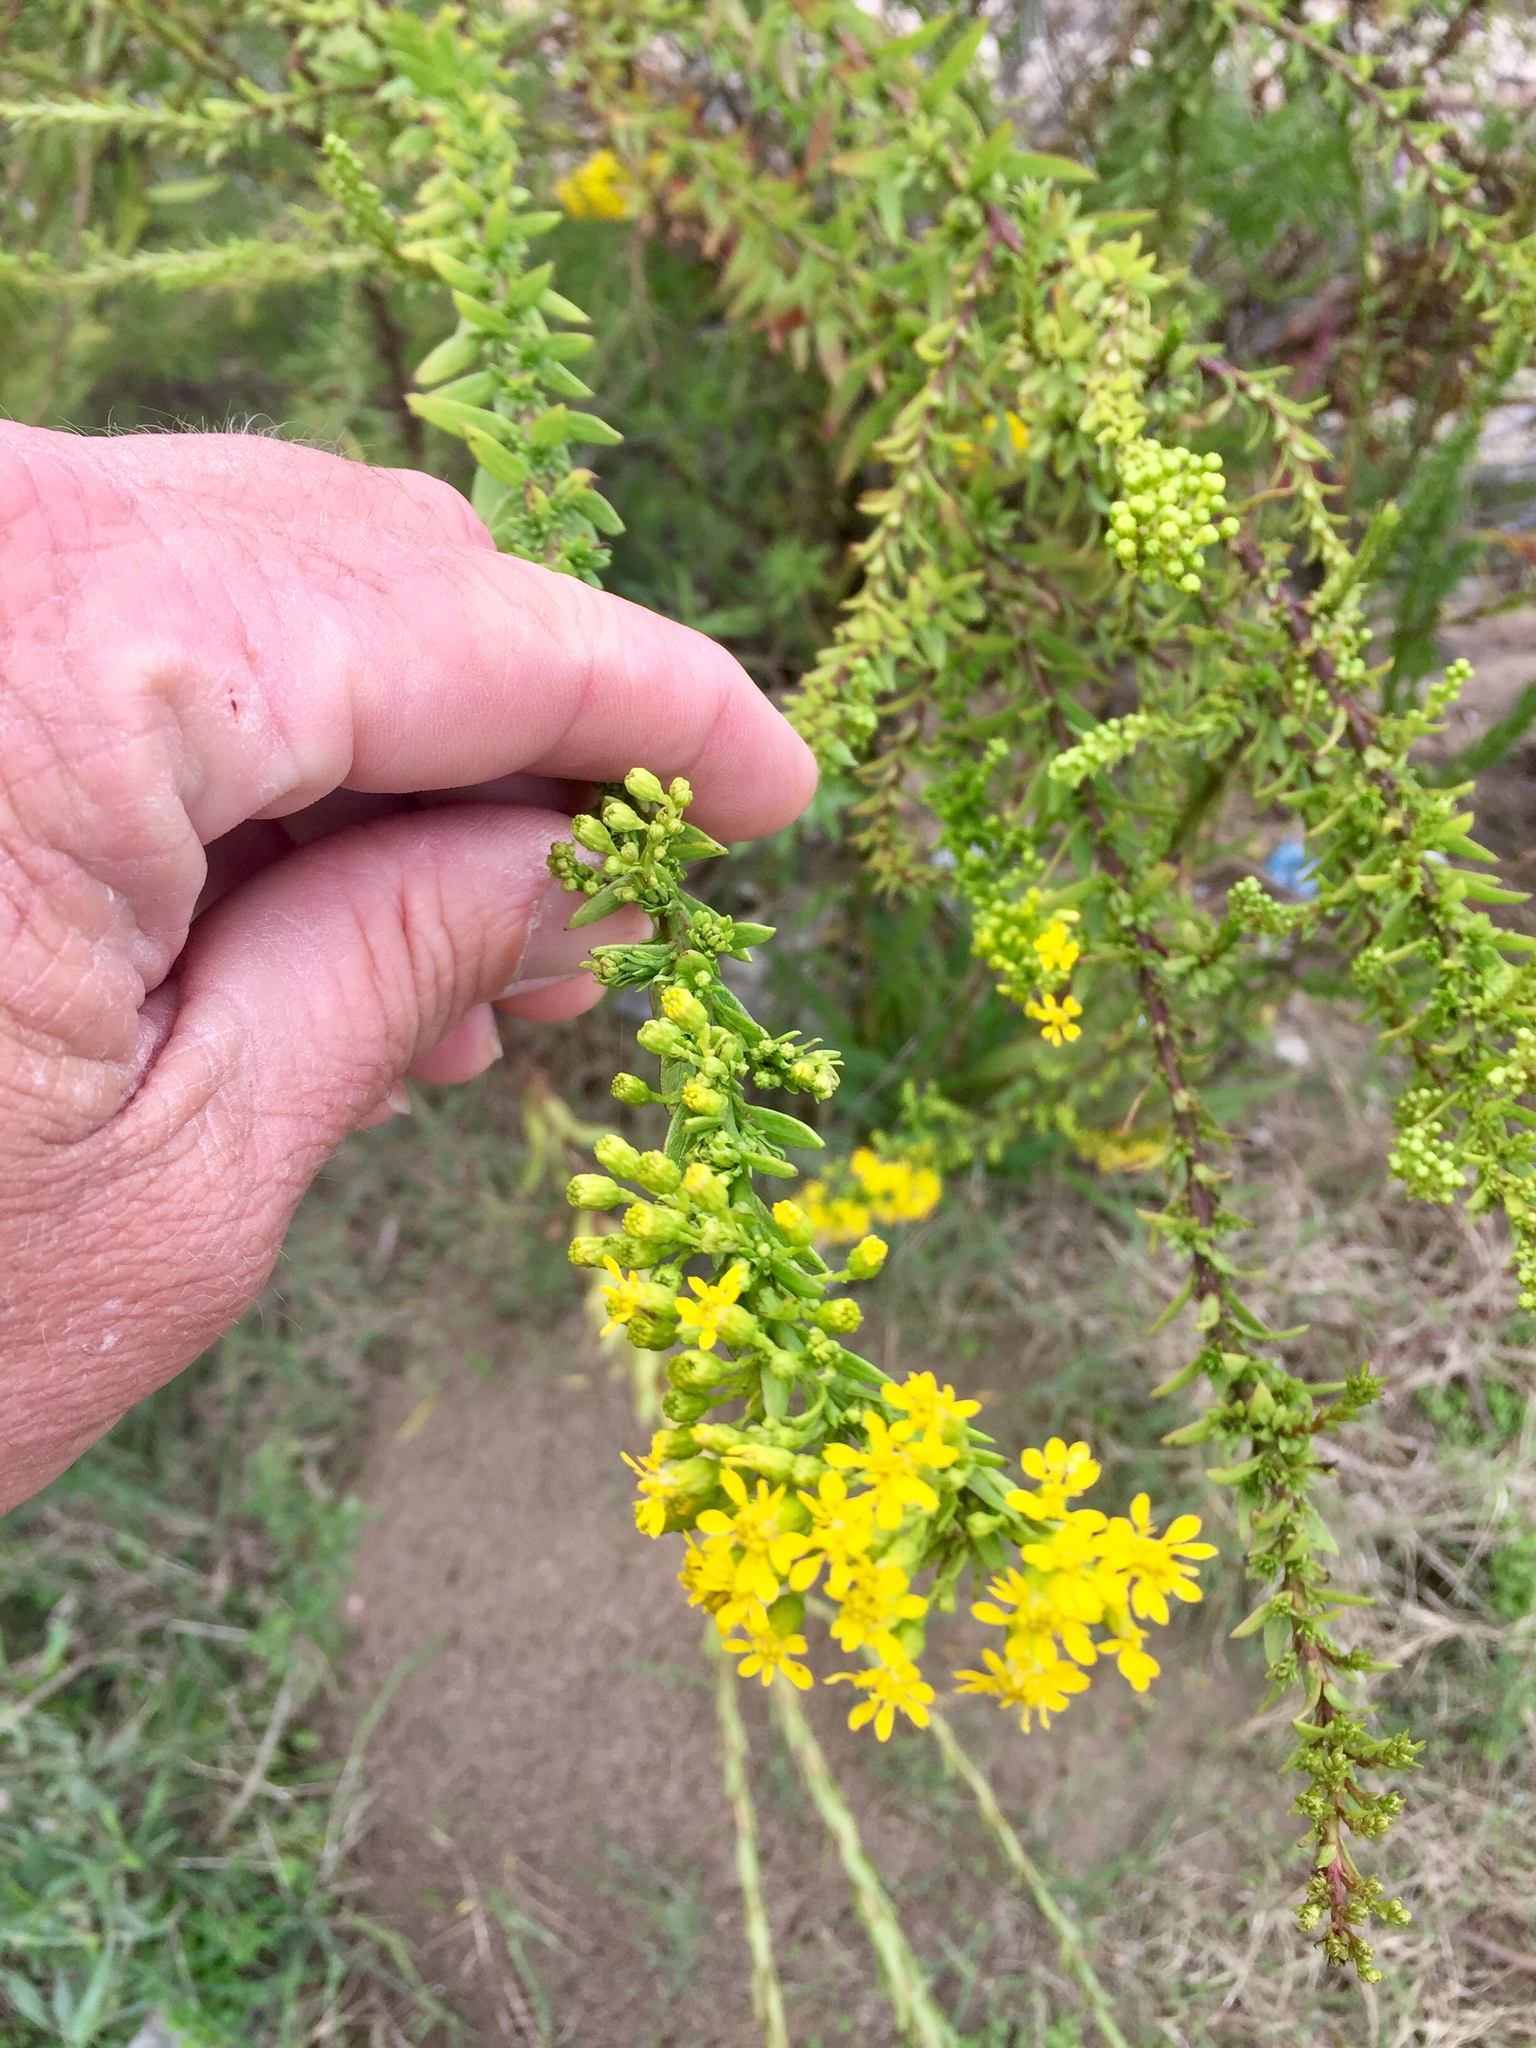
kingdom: Plantae
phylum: Tracheophyta
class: Magnoliopsida
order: Asterales
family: Asteraceae
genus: Solidago
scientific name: Solidago mexicana
